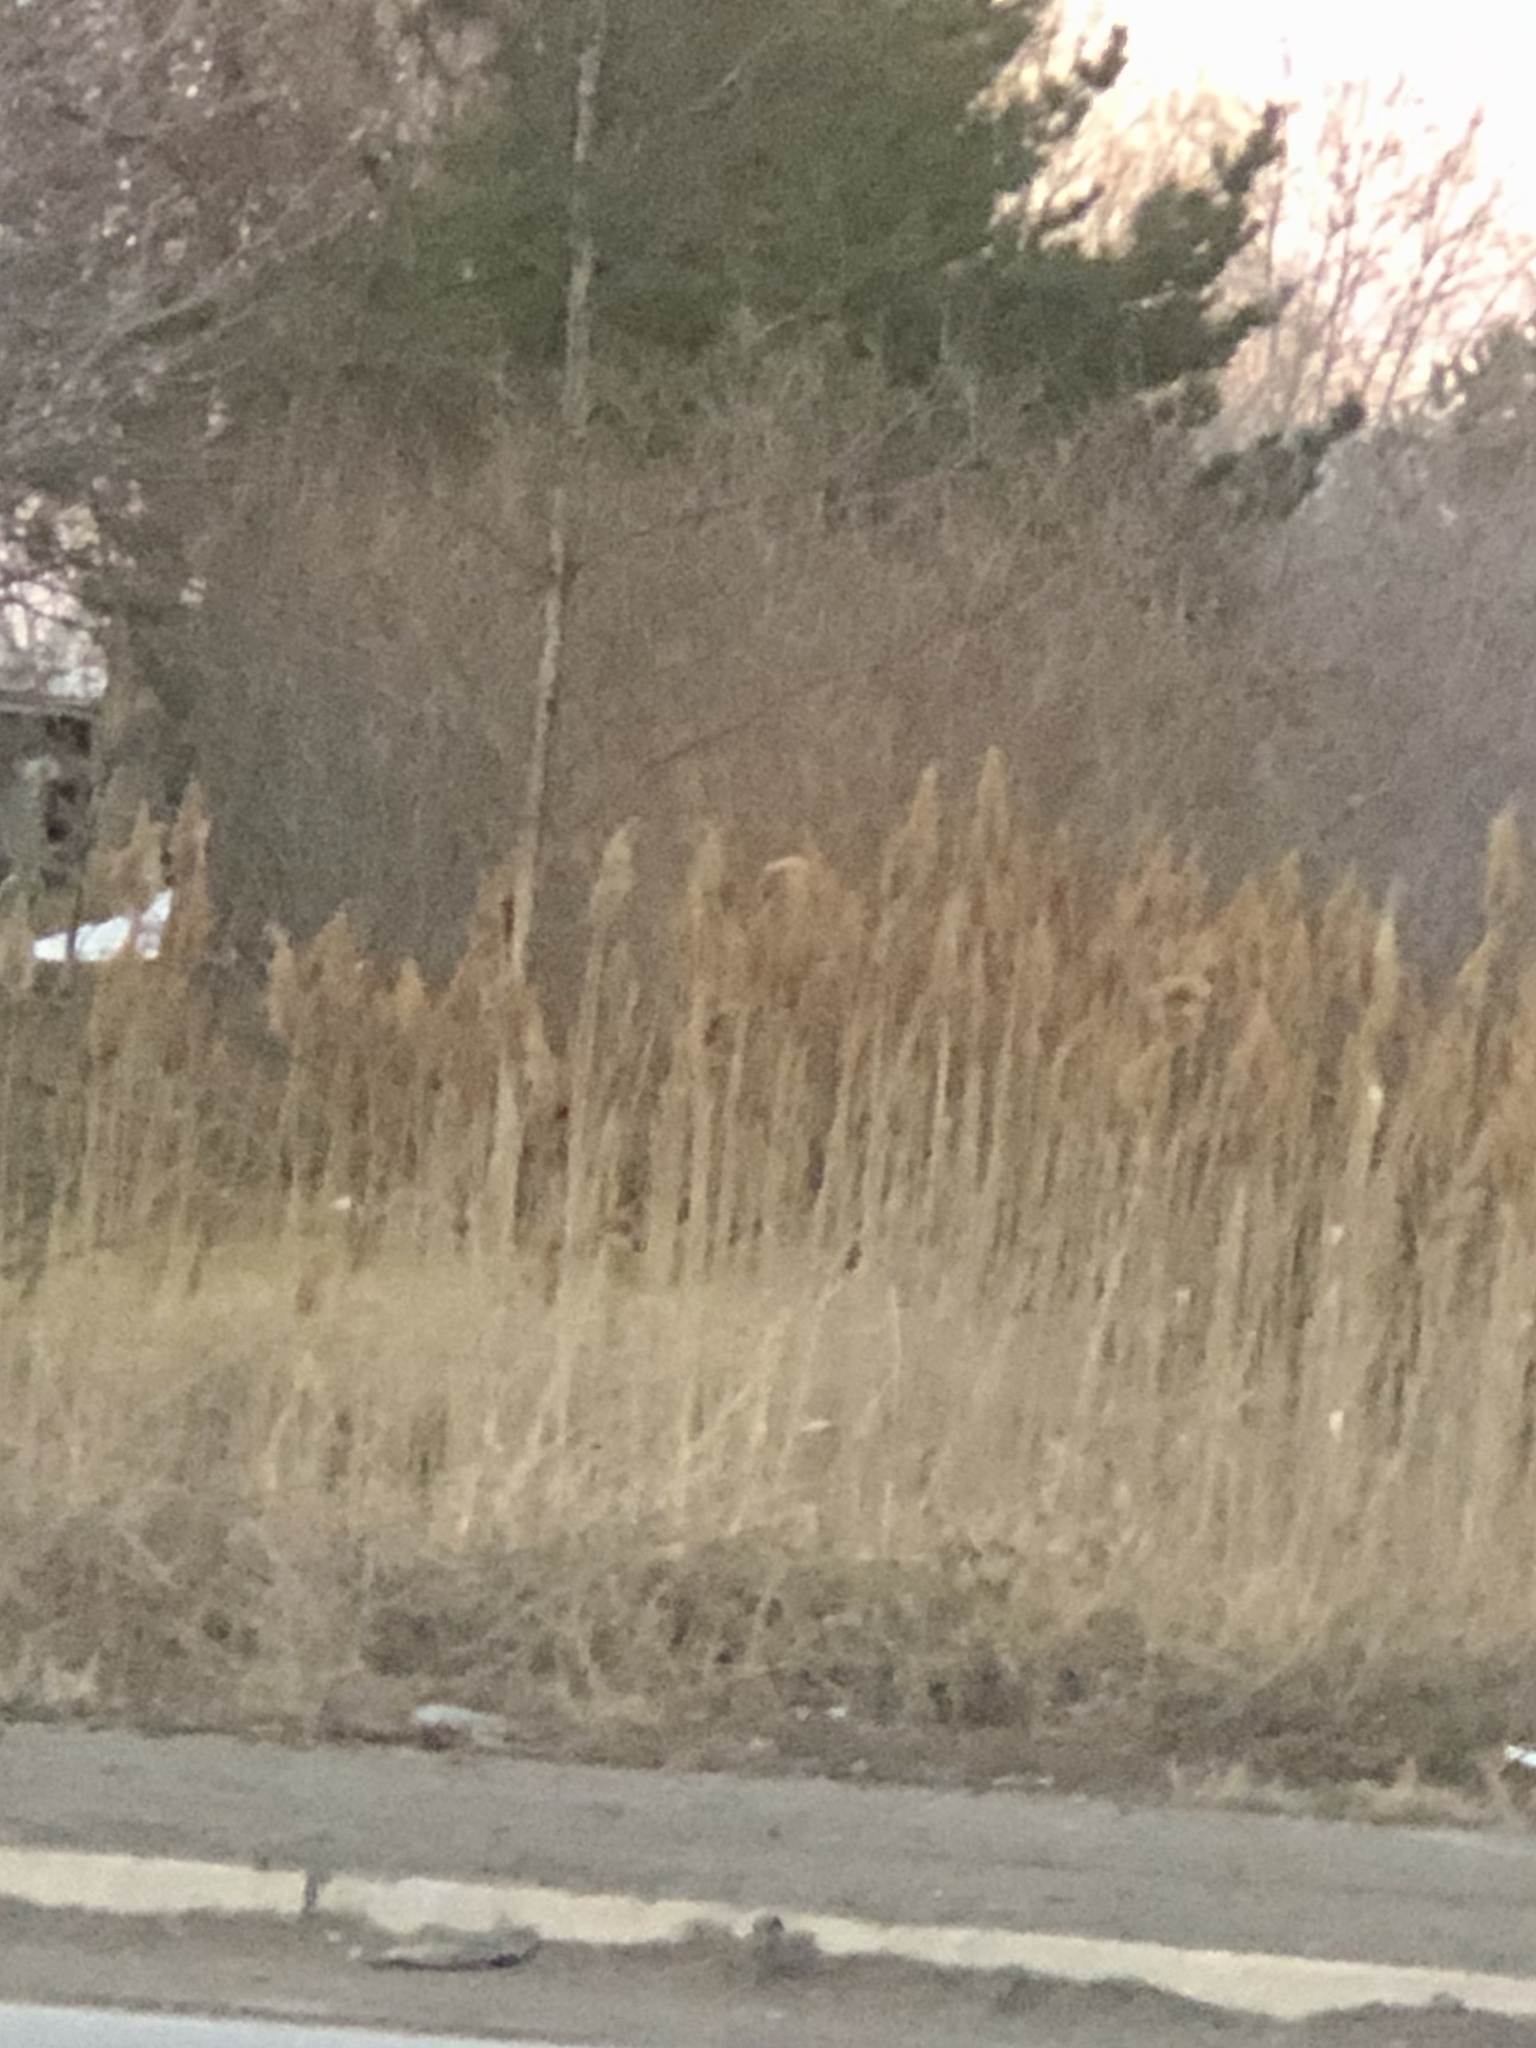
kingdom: Plantae
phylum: Tracheophyta
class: Liliopsida
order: Poales
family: Poaceae
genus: Phragmites
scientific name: Phragmites australis
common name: Common reed
